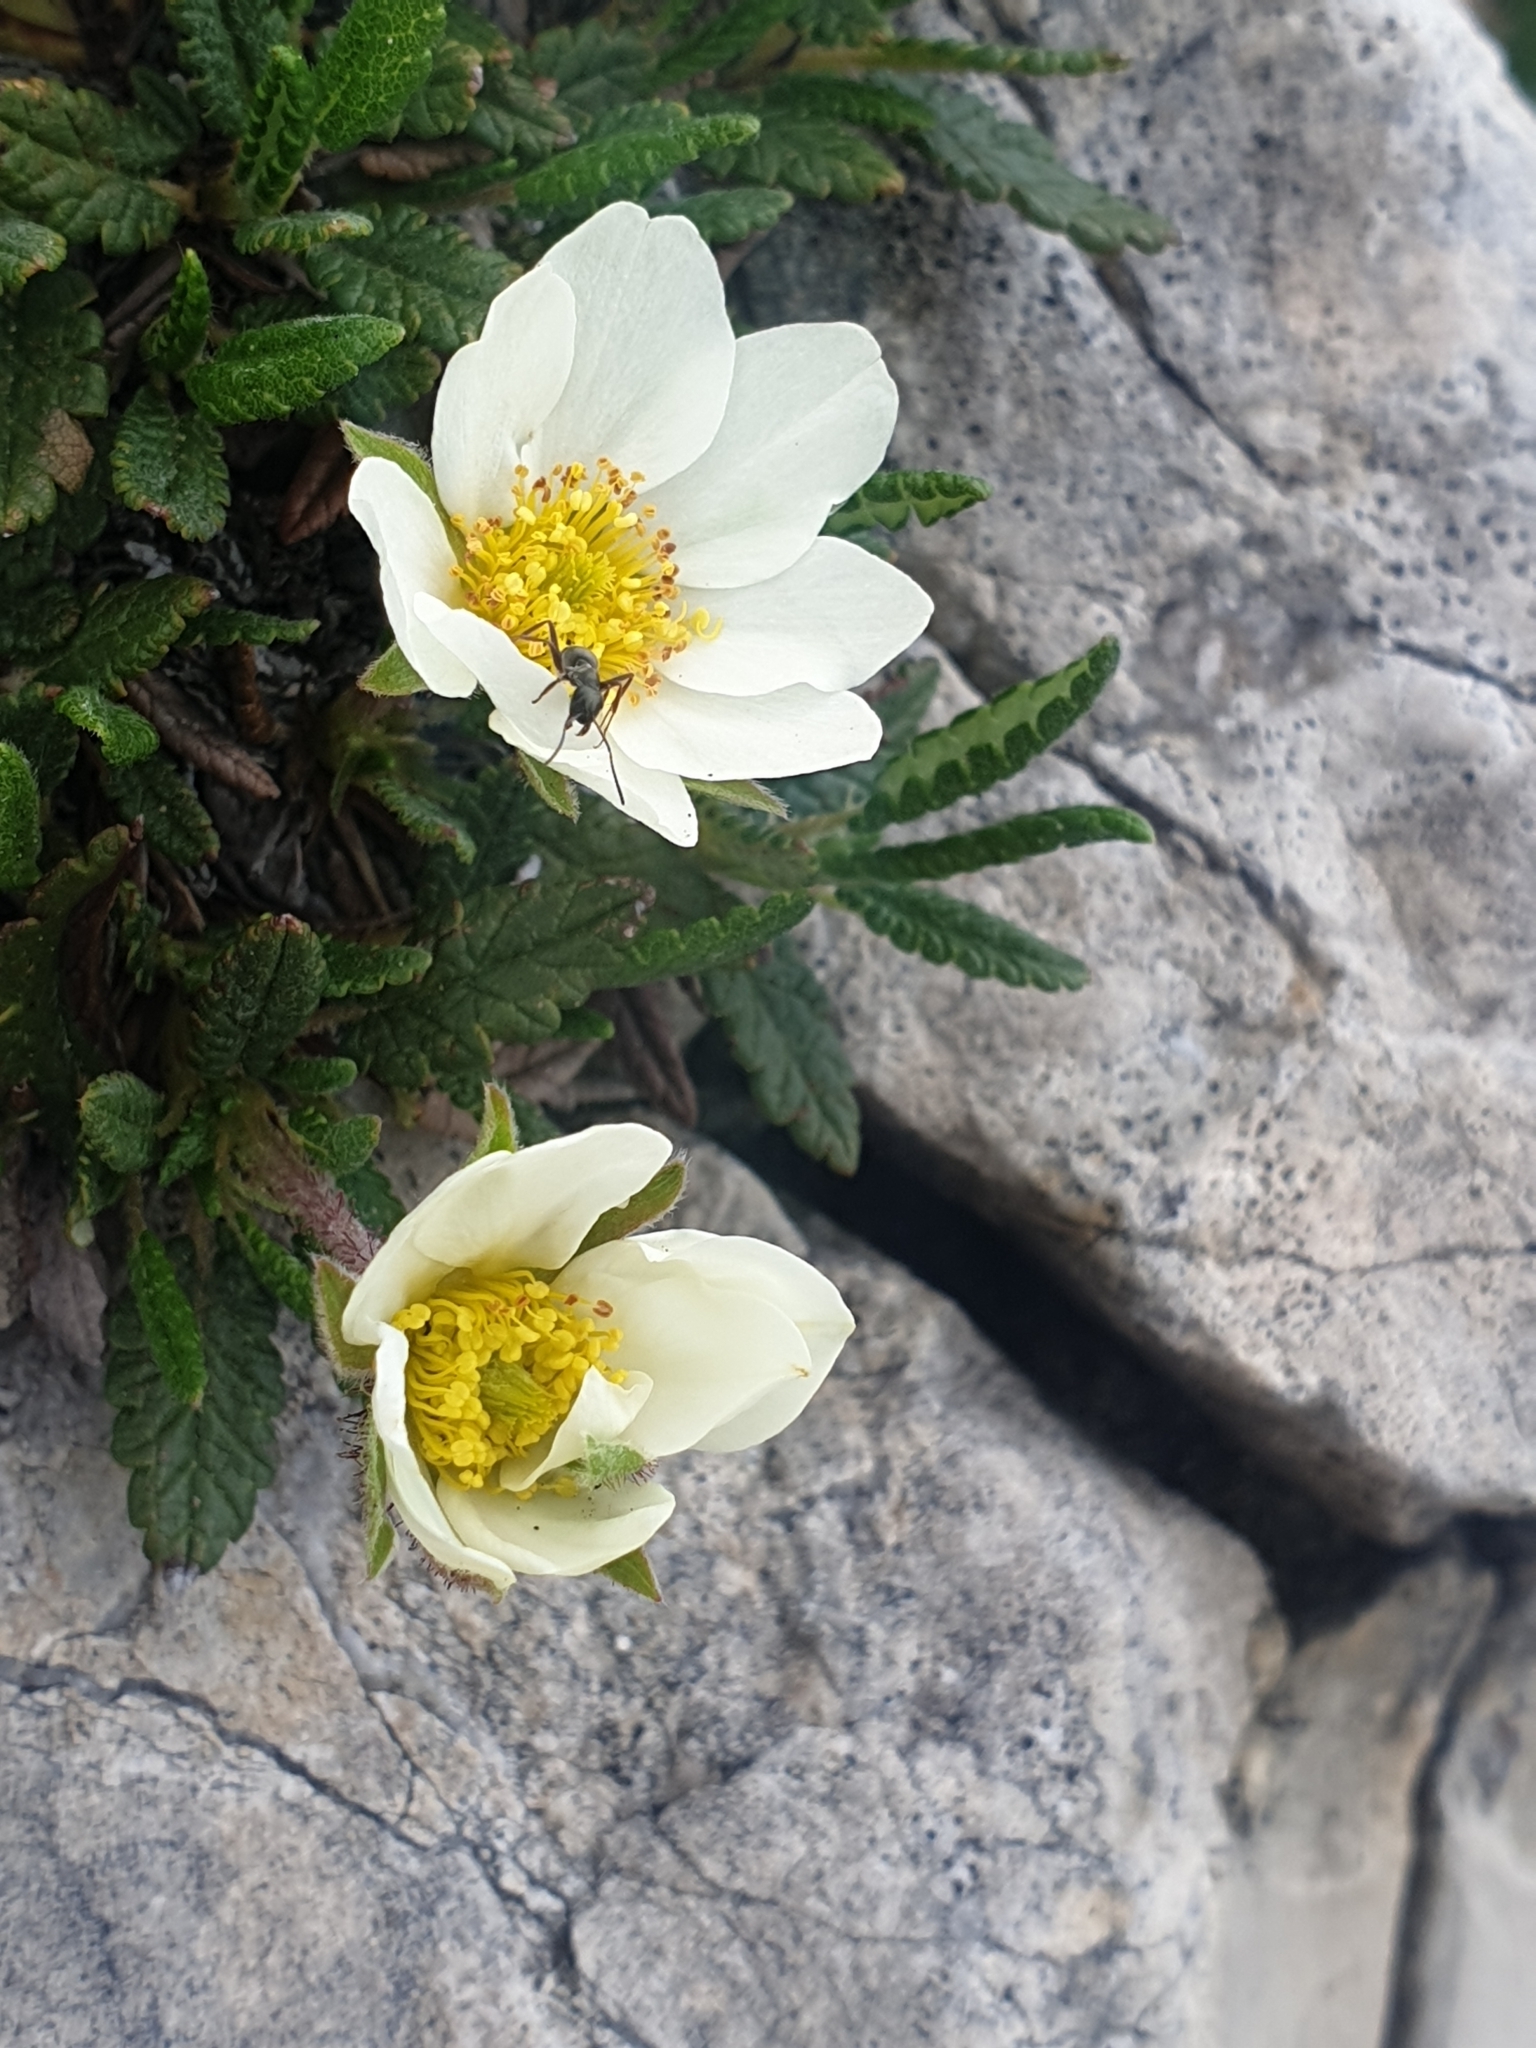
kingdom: Plantae
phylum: Tracheophyta
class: Magnoliopsida
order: Rosales
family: Rosaceae
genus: Dryas
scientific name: Dryas octopetala
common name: Eight-petal mountain-avens
